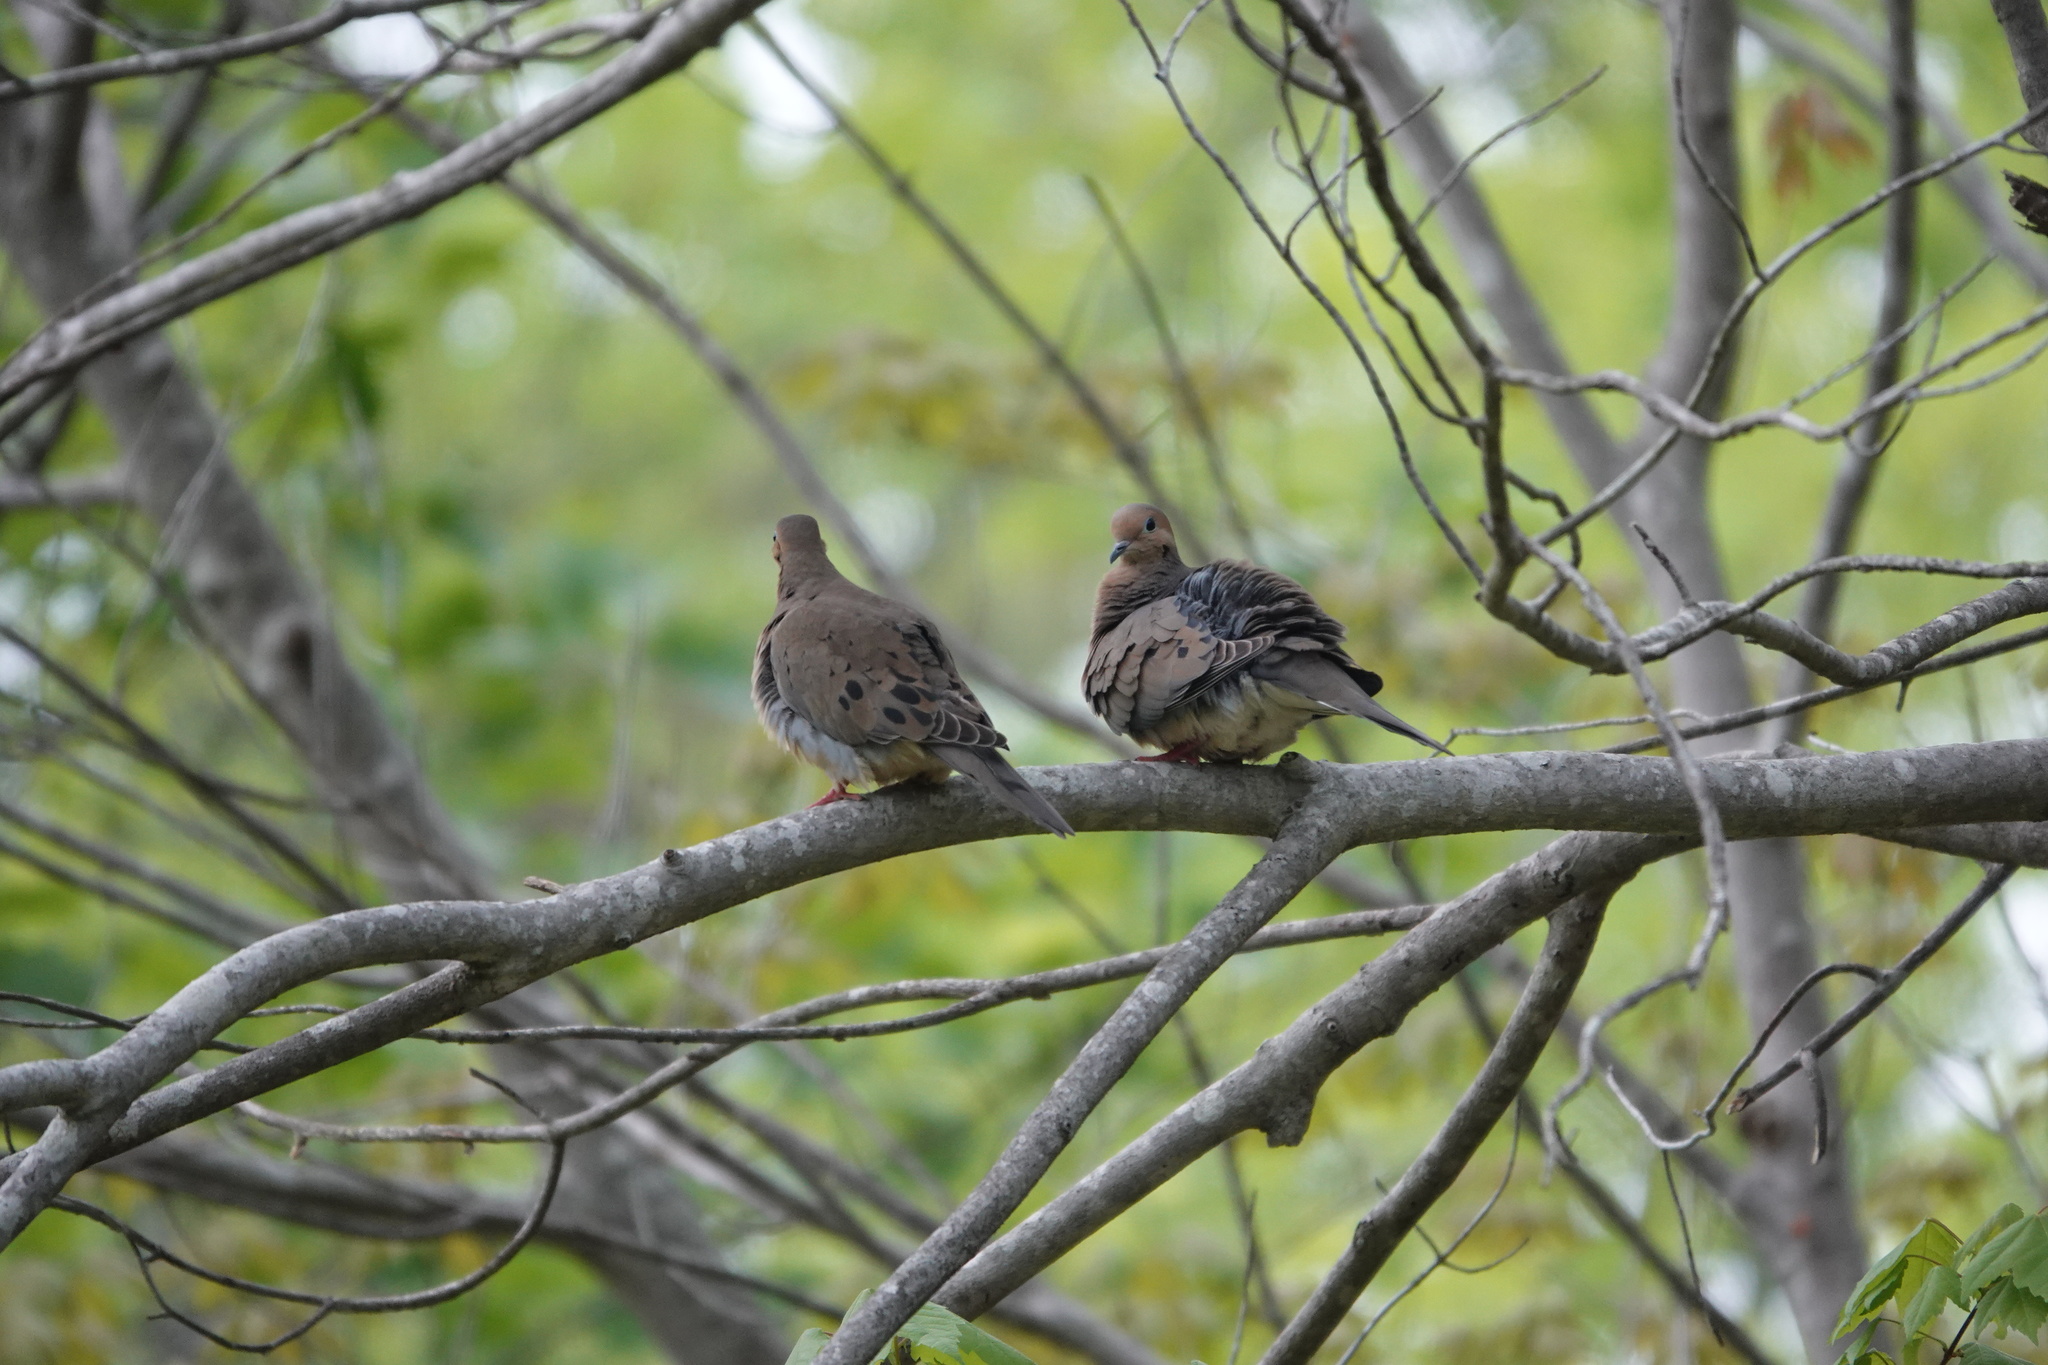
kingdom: Animalia
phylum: Chordata
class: Aves
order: Columbiformes
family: Columbidae
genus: Zenaida
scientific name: Zenaida macroura
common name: Mourning dove
